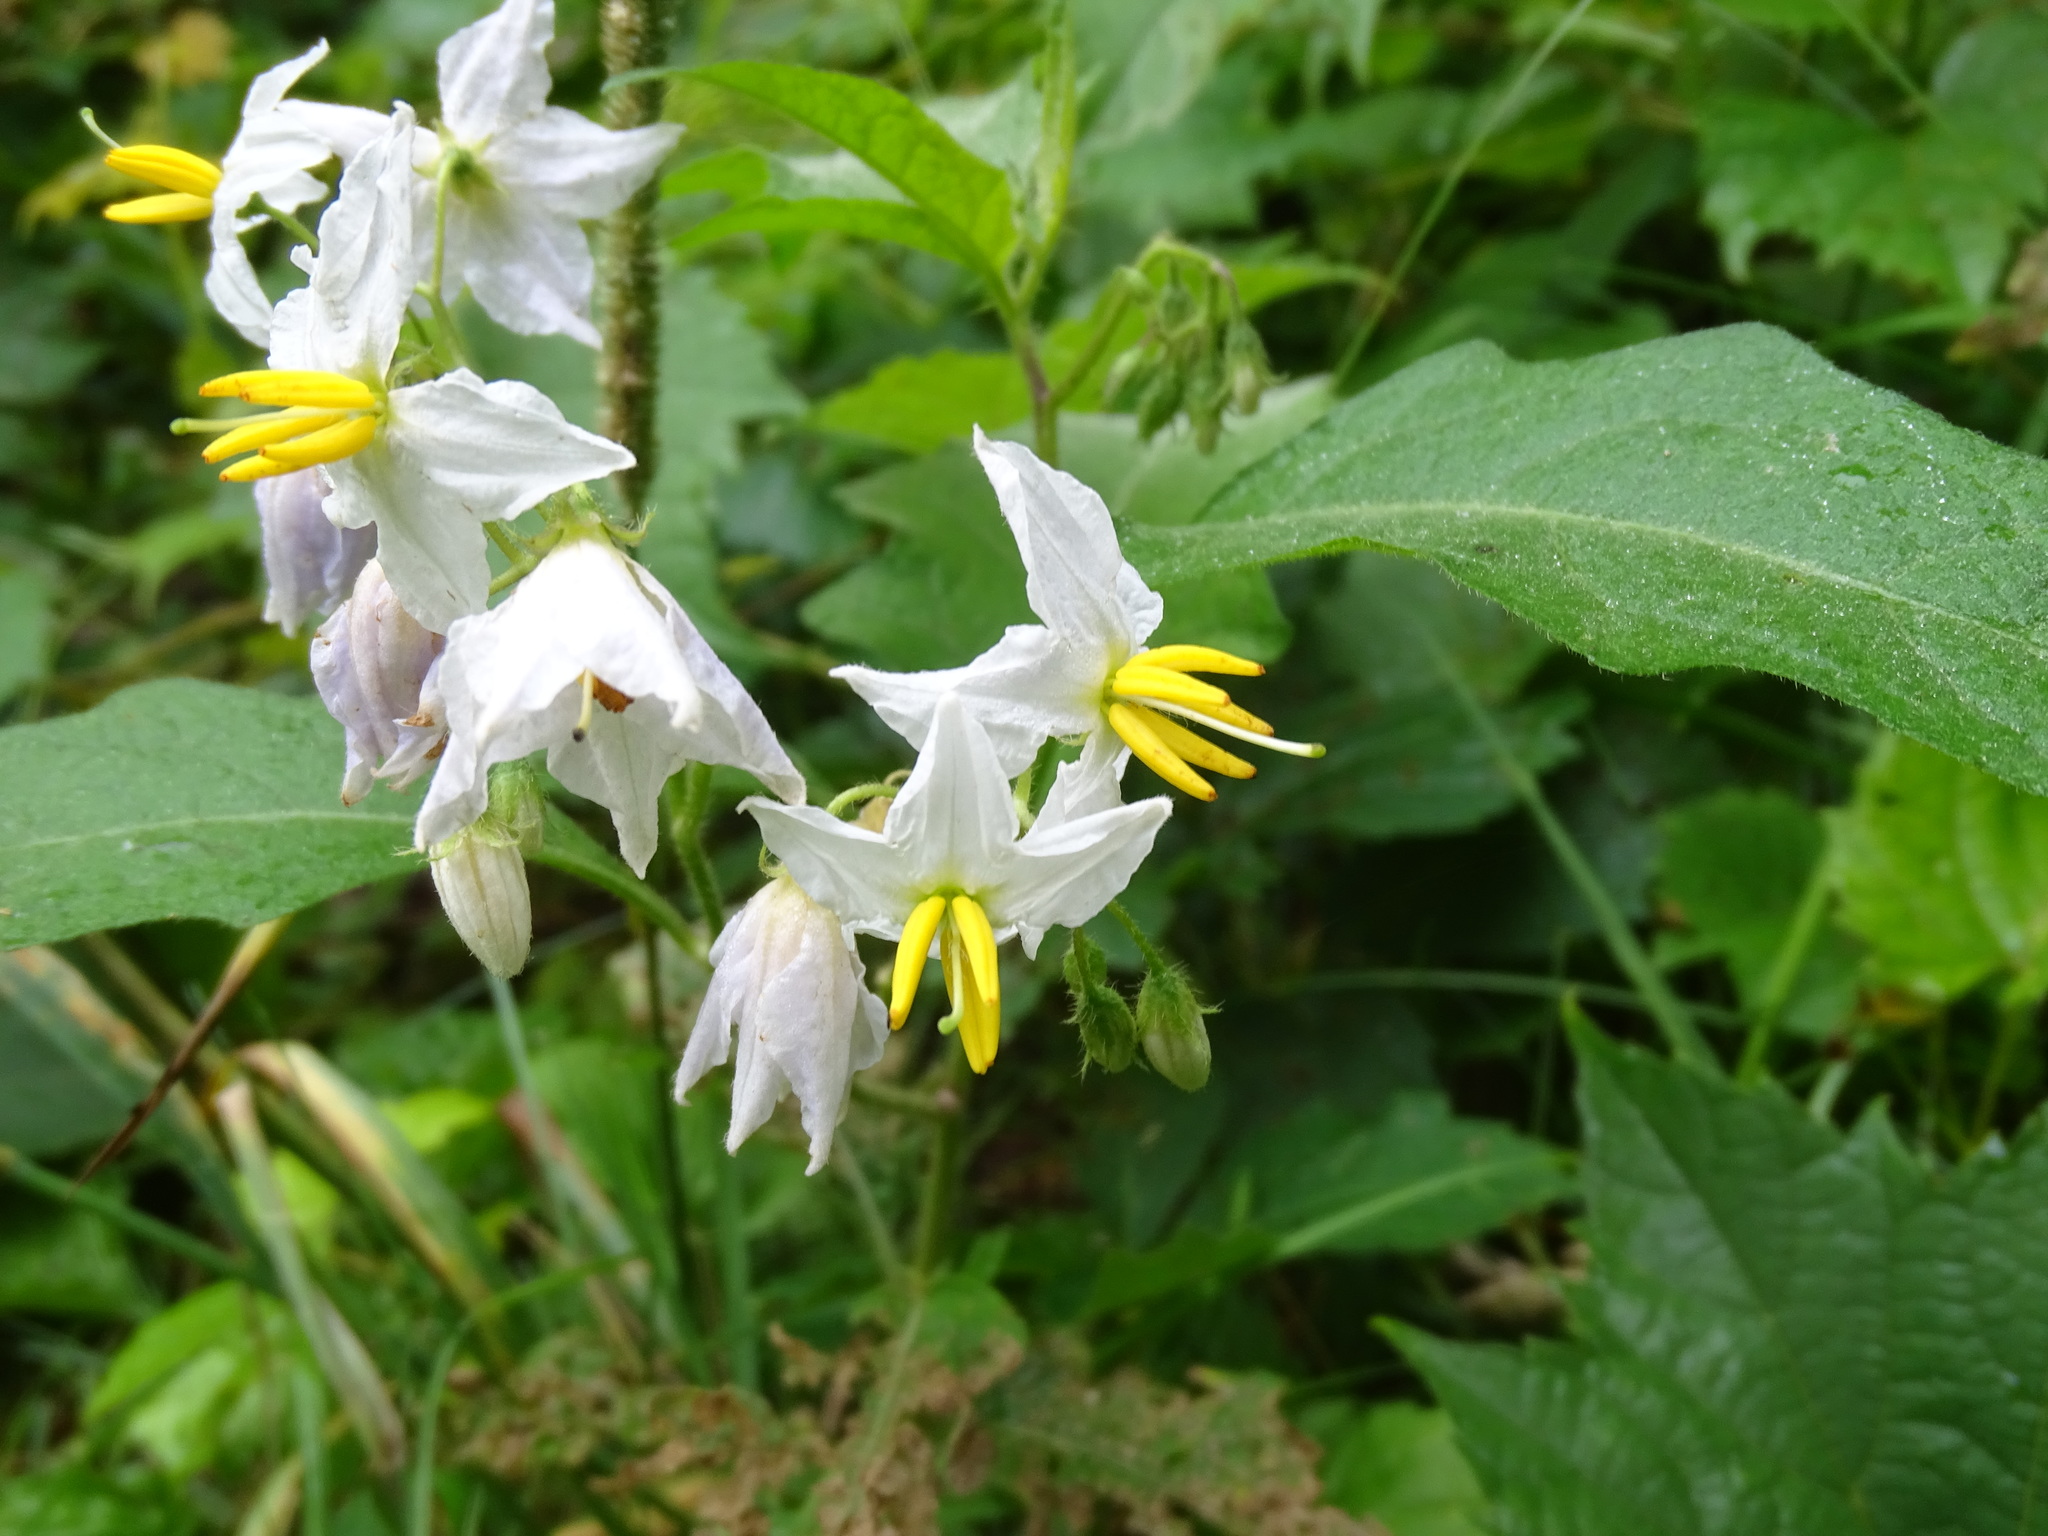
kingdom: Plantae
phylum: Tracheophyta
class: Magnoliopsida
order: Solanales
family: Solanaceae
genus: Solanum
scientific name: Solanum carolinense
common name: Horse-nettle
